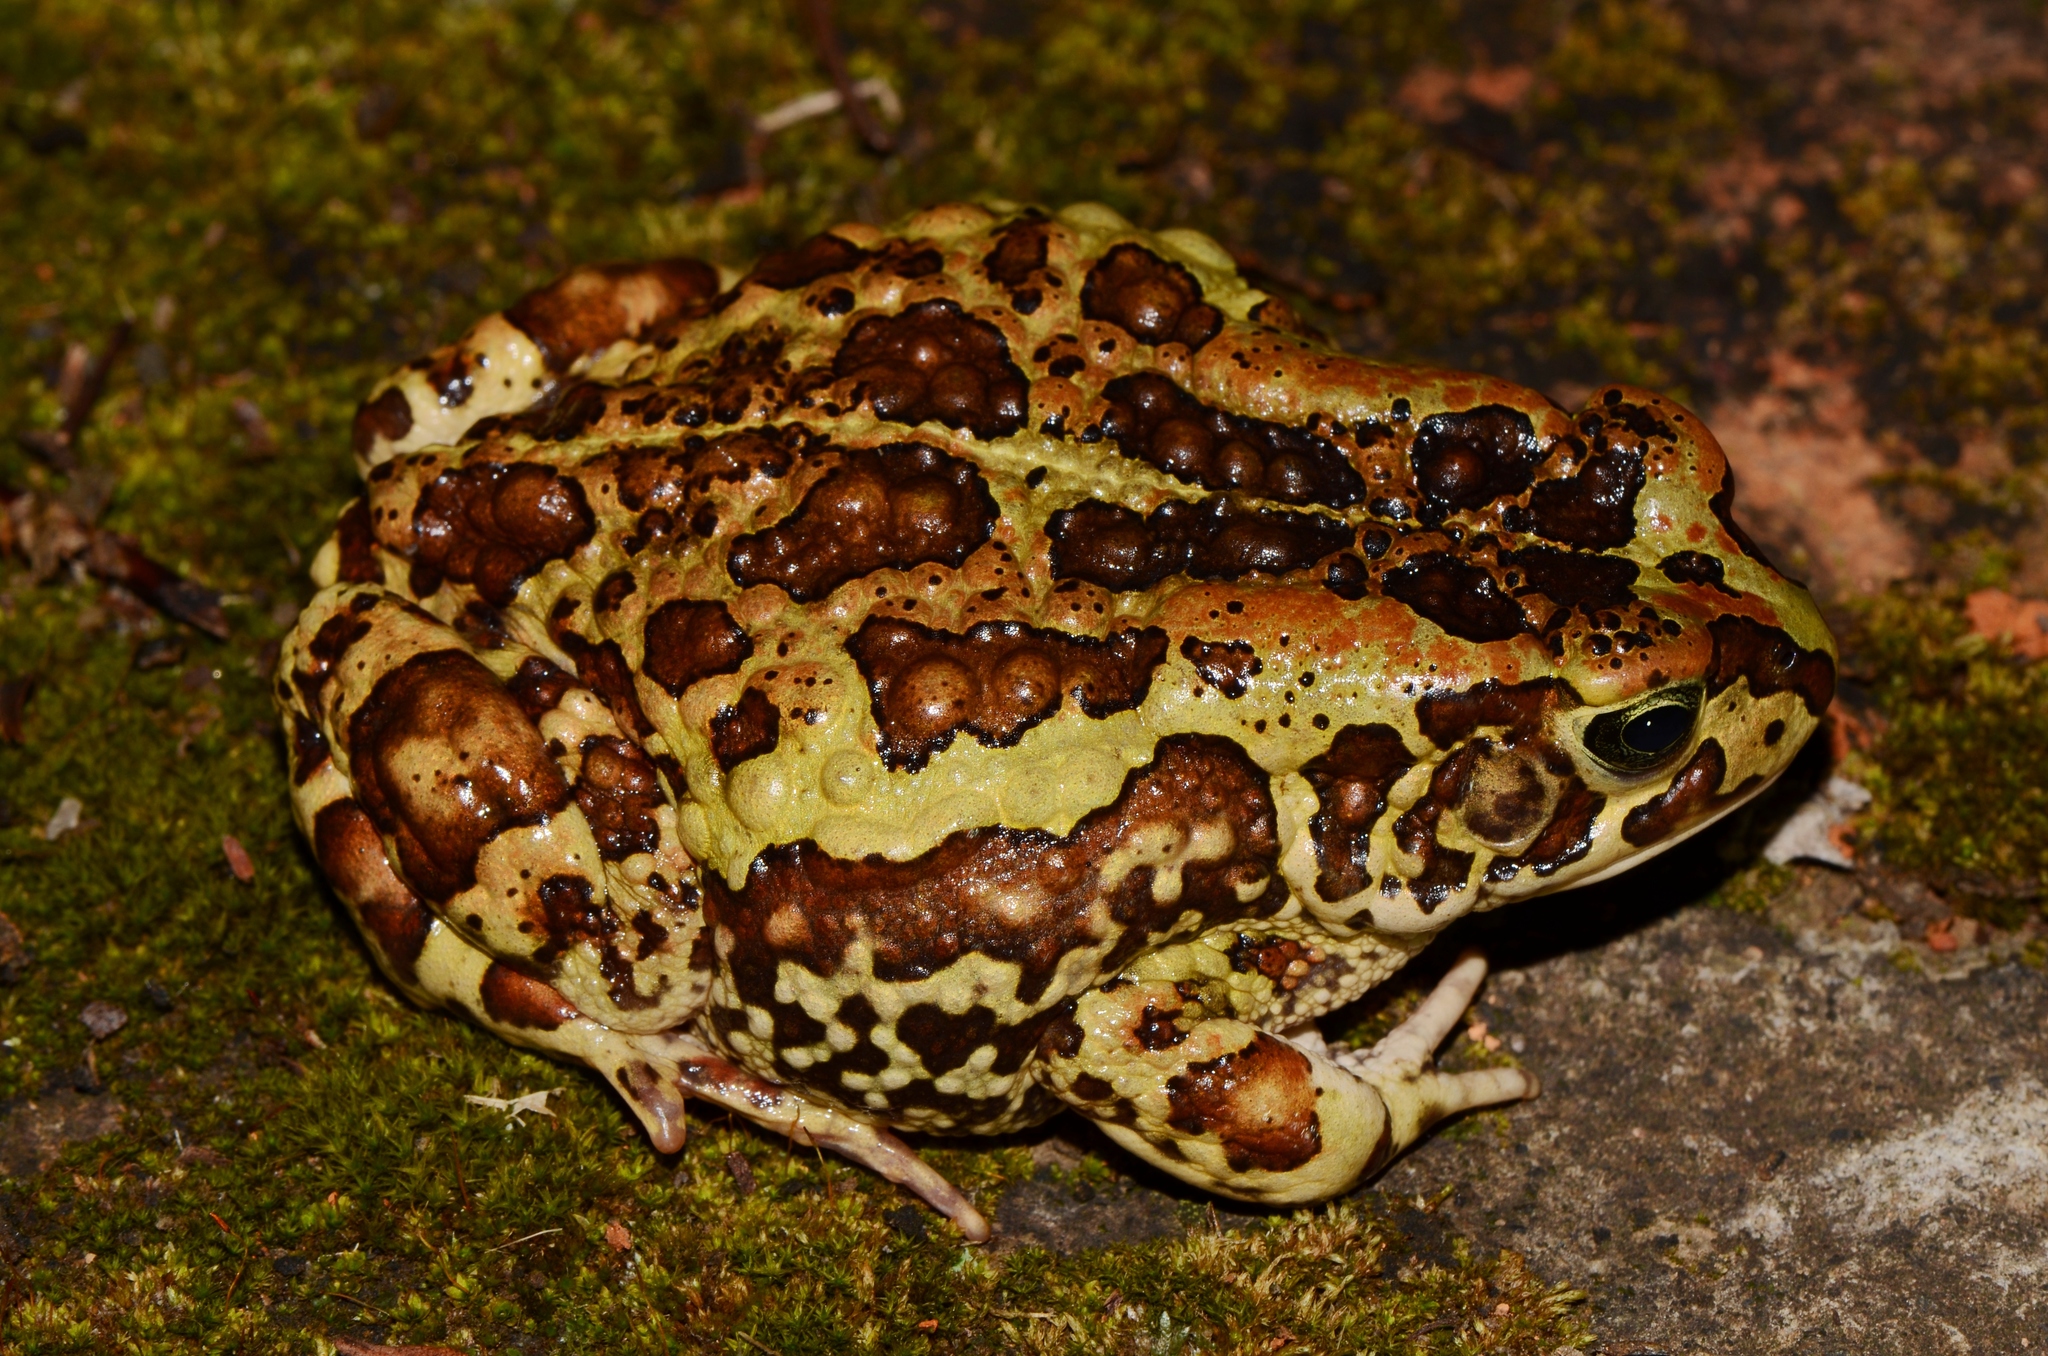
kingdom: Animalia
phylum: Chordata
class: Amphibia
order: Anura
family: Bufonidae
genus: Sclerophrys
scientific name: Sclerophrys kerinyagae
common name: Keith's toad
